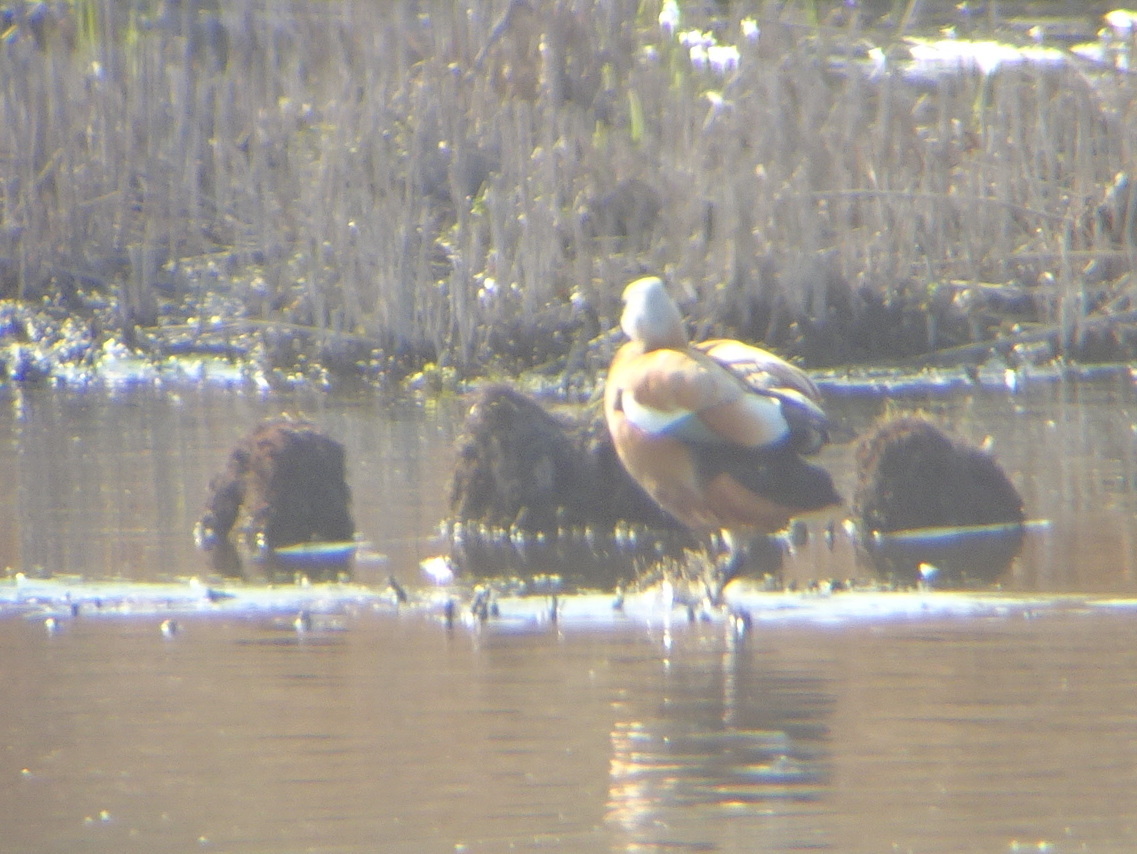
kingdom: Animalia
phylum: Chordata
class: Aves
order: Anseriformes
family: Anatidae
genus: Tadorna
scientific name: Tadorna ferruginea
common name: Ruddy shelduck
